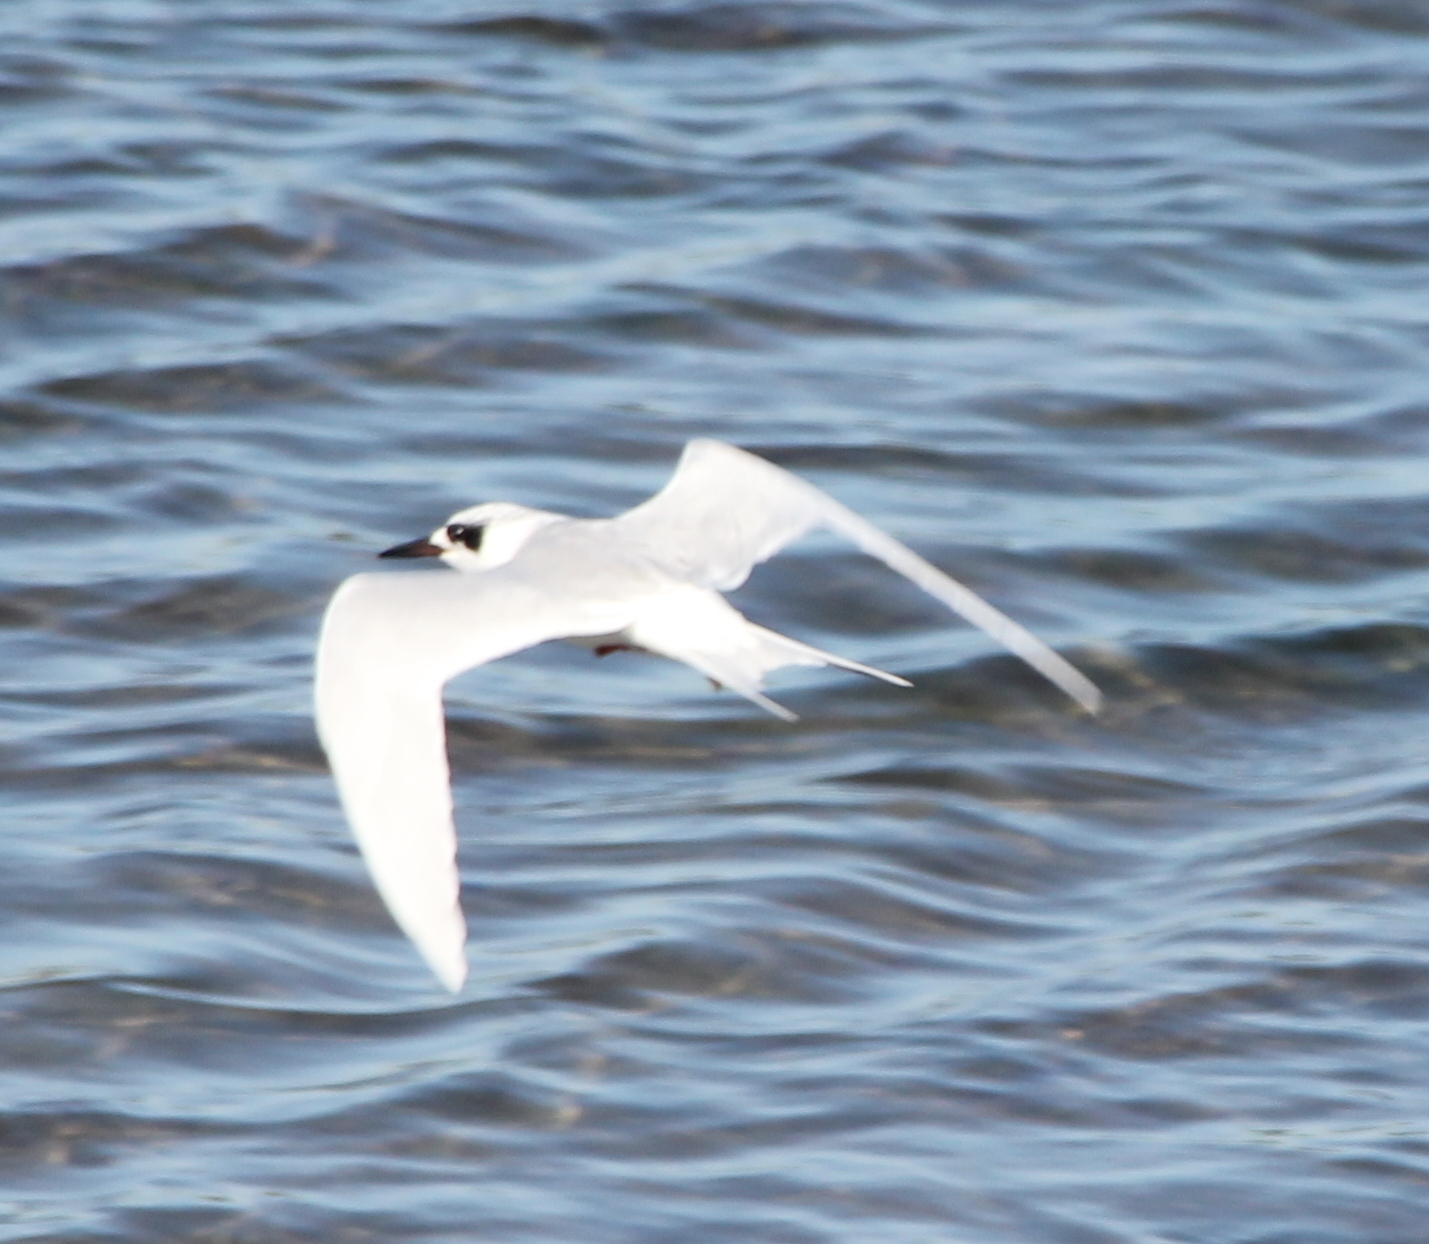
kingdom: Animalia
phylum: Chordata
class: Aves
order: Charadriiformes
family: Laridae
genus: Sterna
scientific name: Sterna forsteri
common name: Forster's tern
